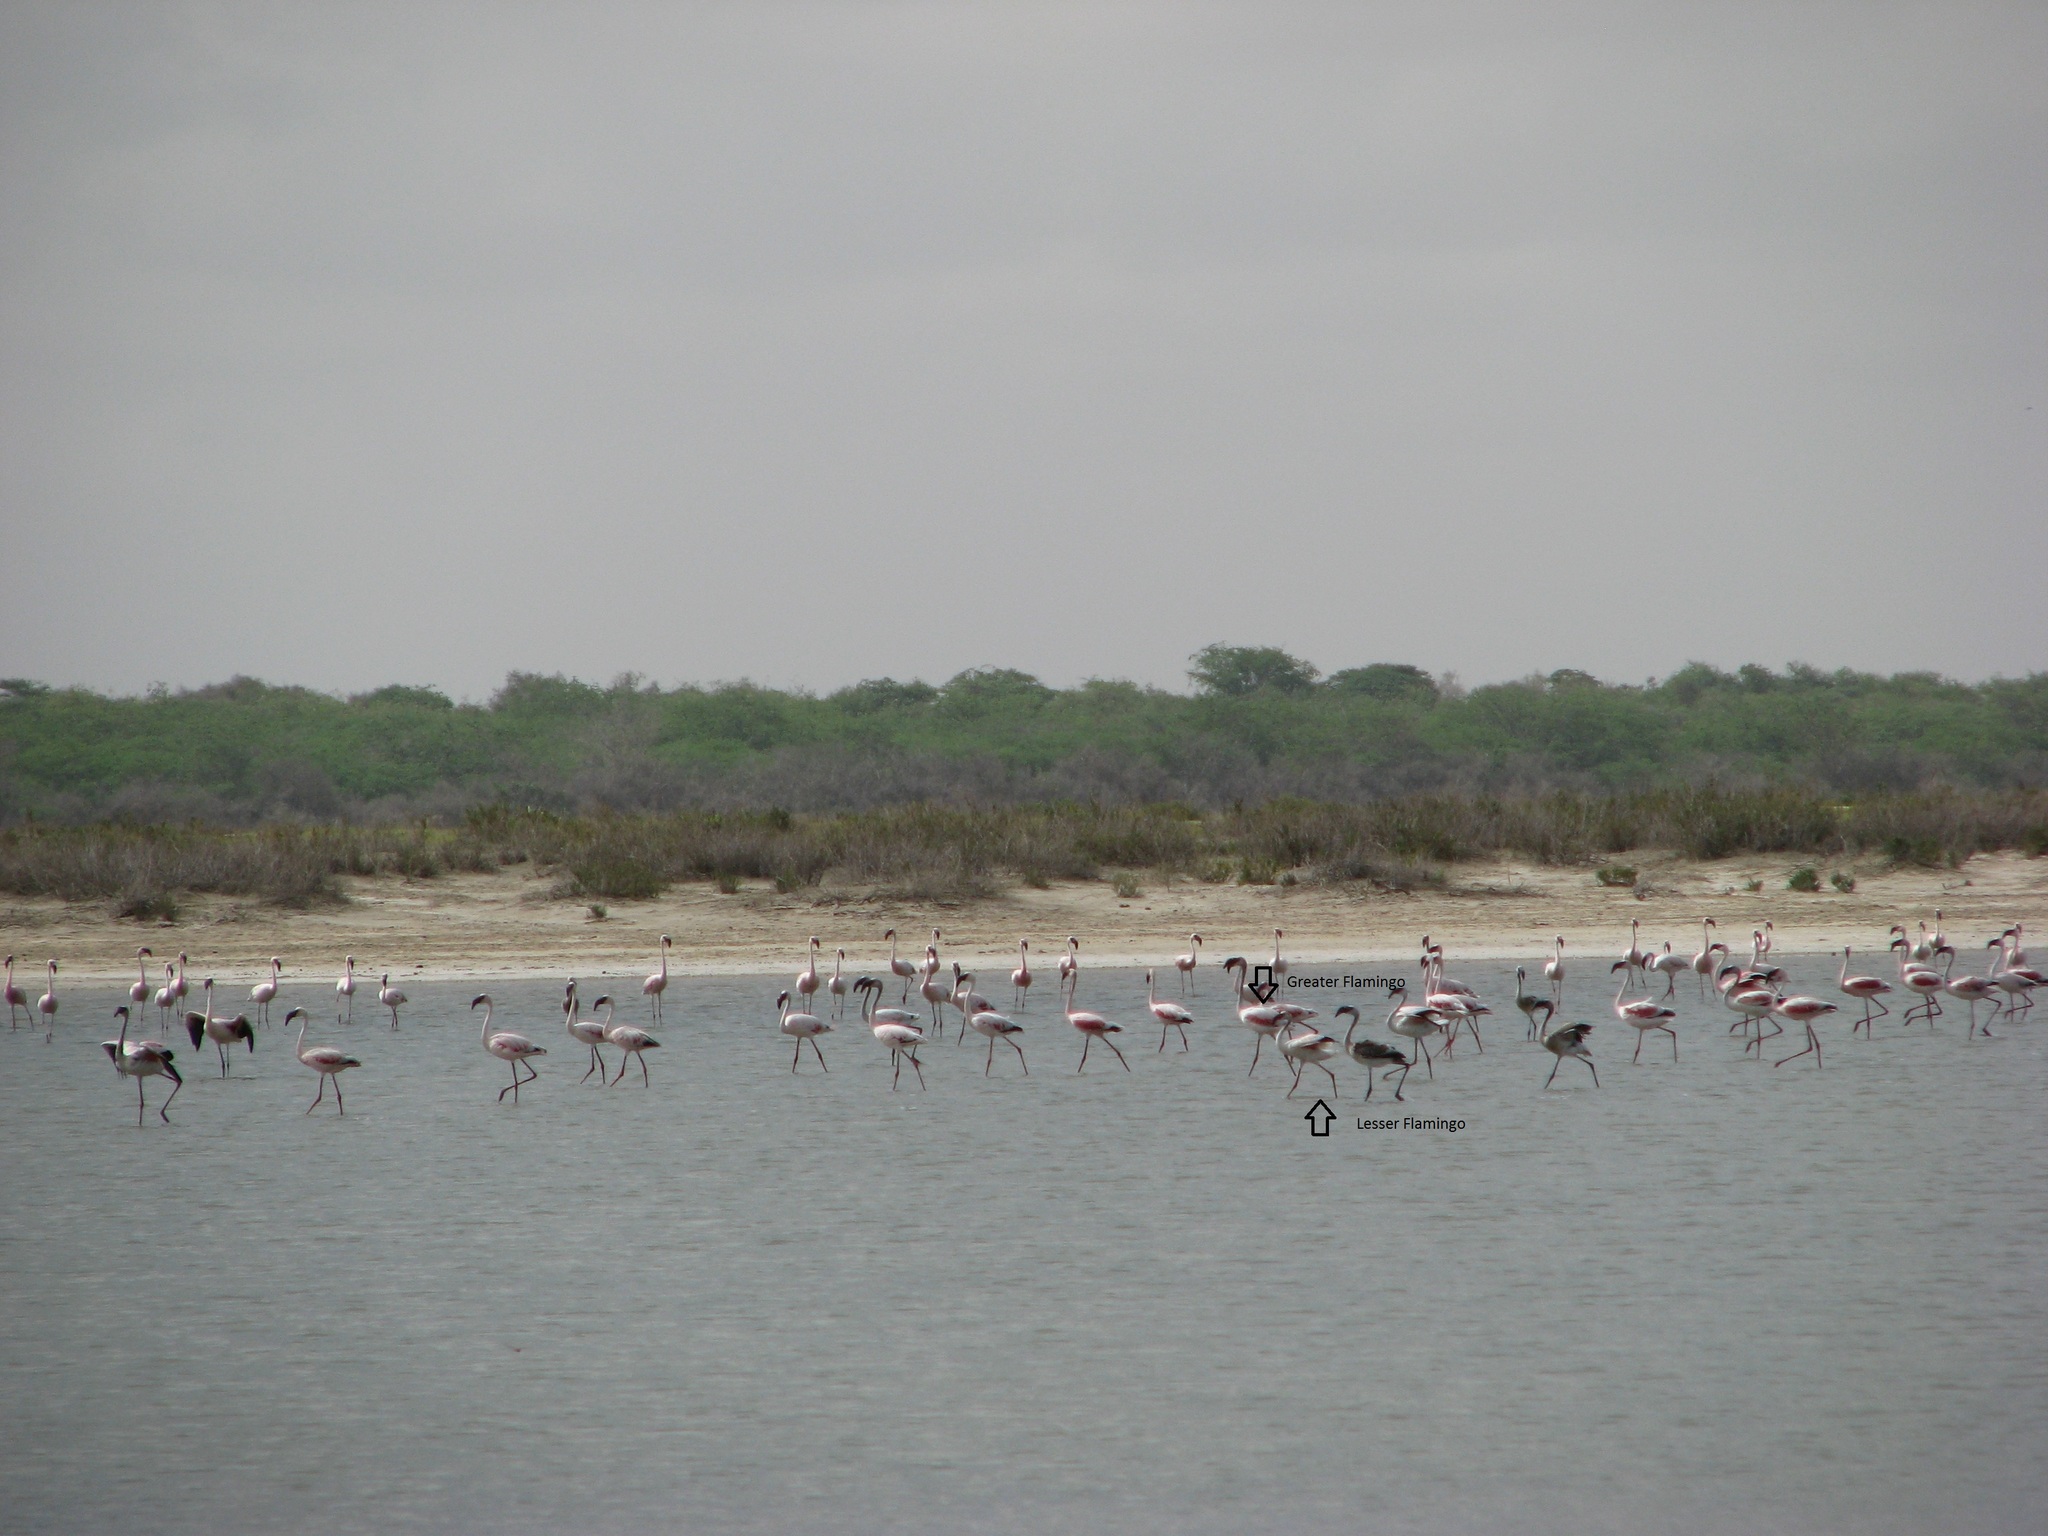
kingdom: Animalia
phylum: Chordata
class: Aves
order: Phoenicopteriformes
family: Phoenicopteridae
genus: Phoeniconaias
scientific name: Phoeniconaias minor
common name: Lesser flamingo
